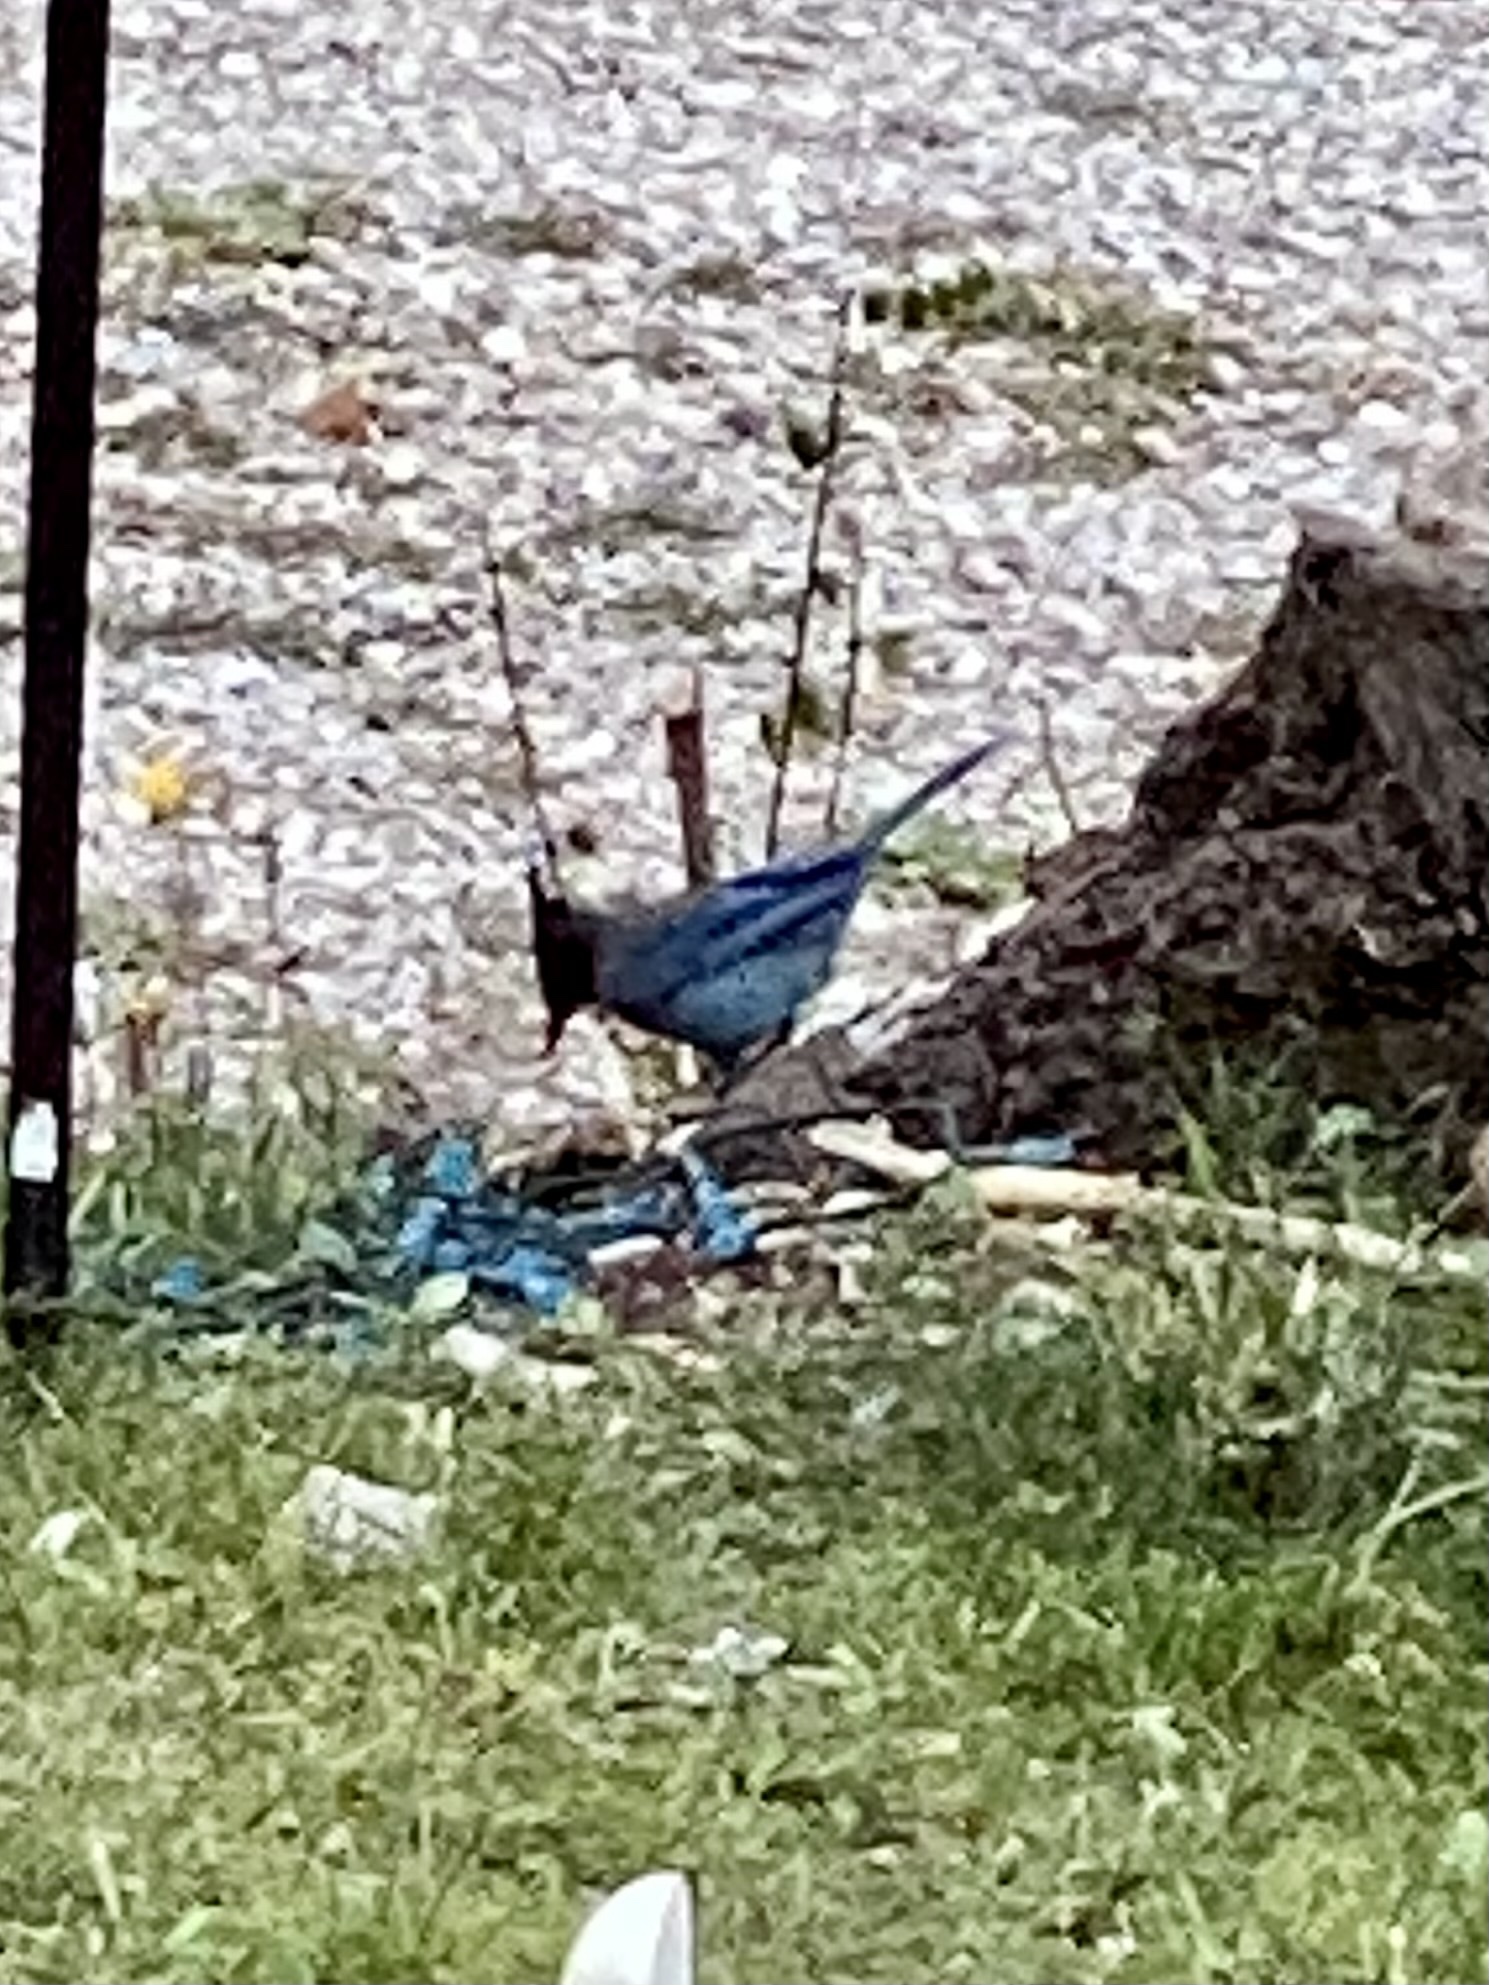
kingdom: Animalia
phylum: Chordata
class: Aves
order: Passeriformes
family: Corvidae
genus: Cyanocitta
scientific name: Cyanocitta stelleri
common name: Steller's jay
